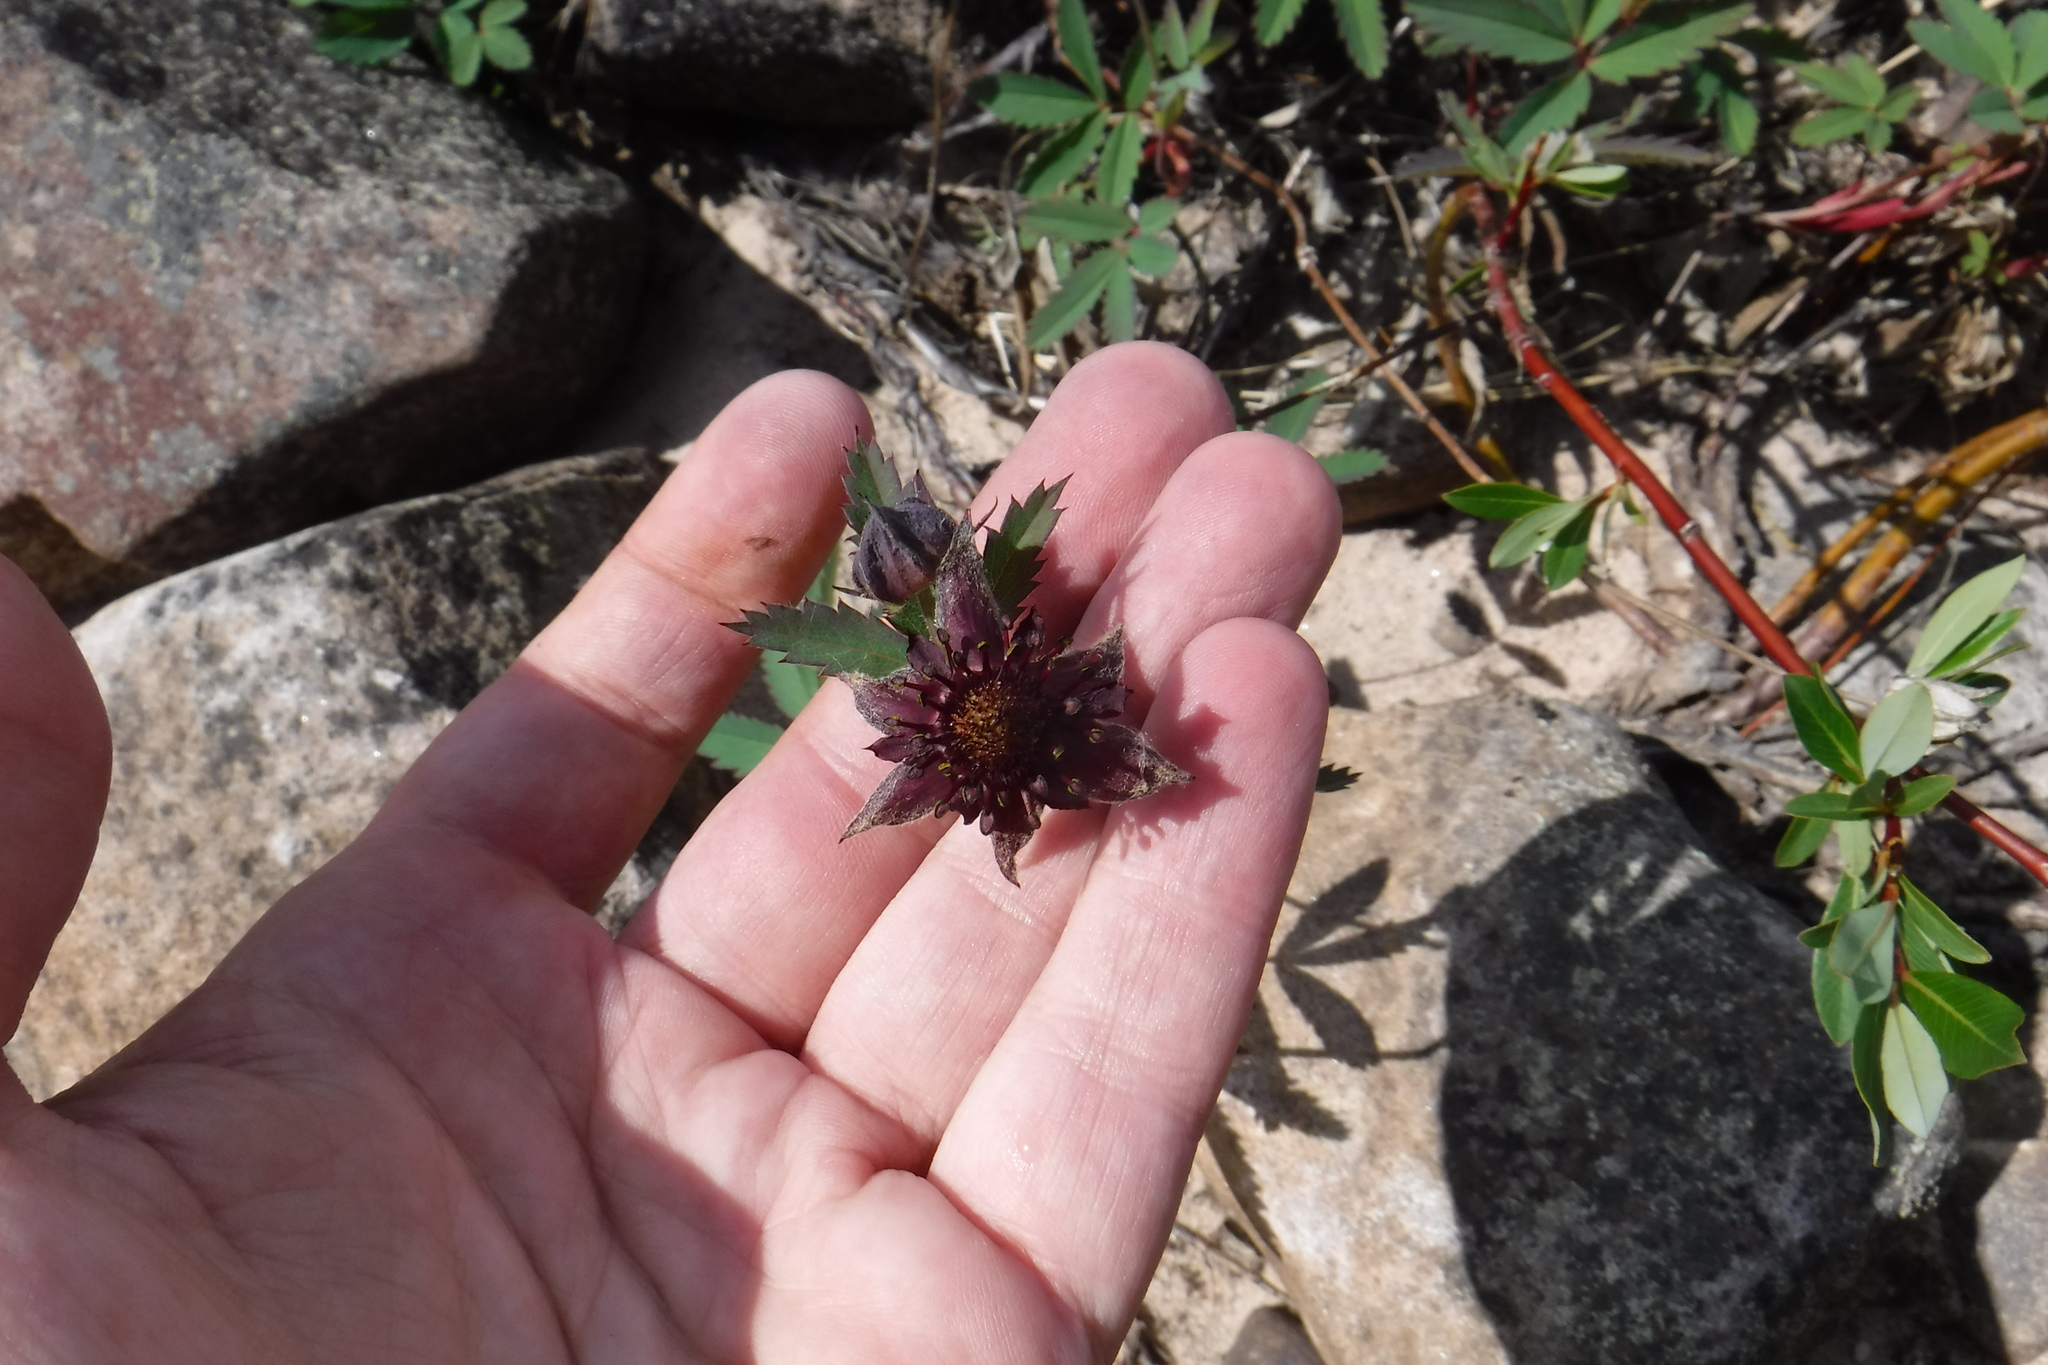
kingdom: Plantae
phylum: Tracheophyta
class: Magnoliopsida
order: Rosales
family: Rosaceae
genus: Comarum
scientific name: Comarum palustre
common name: Marsh cinquefoil
